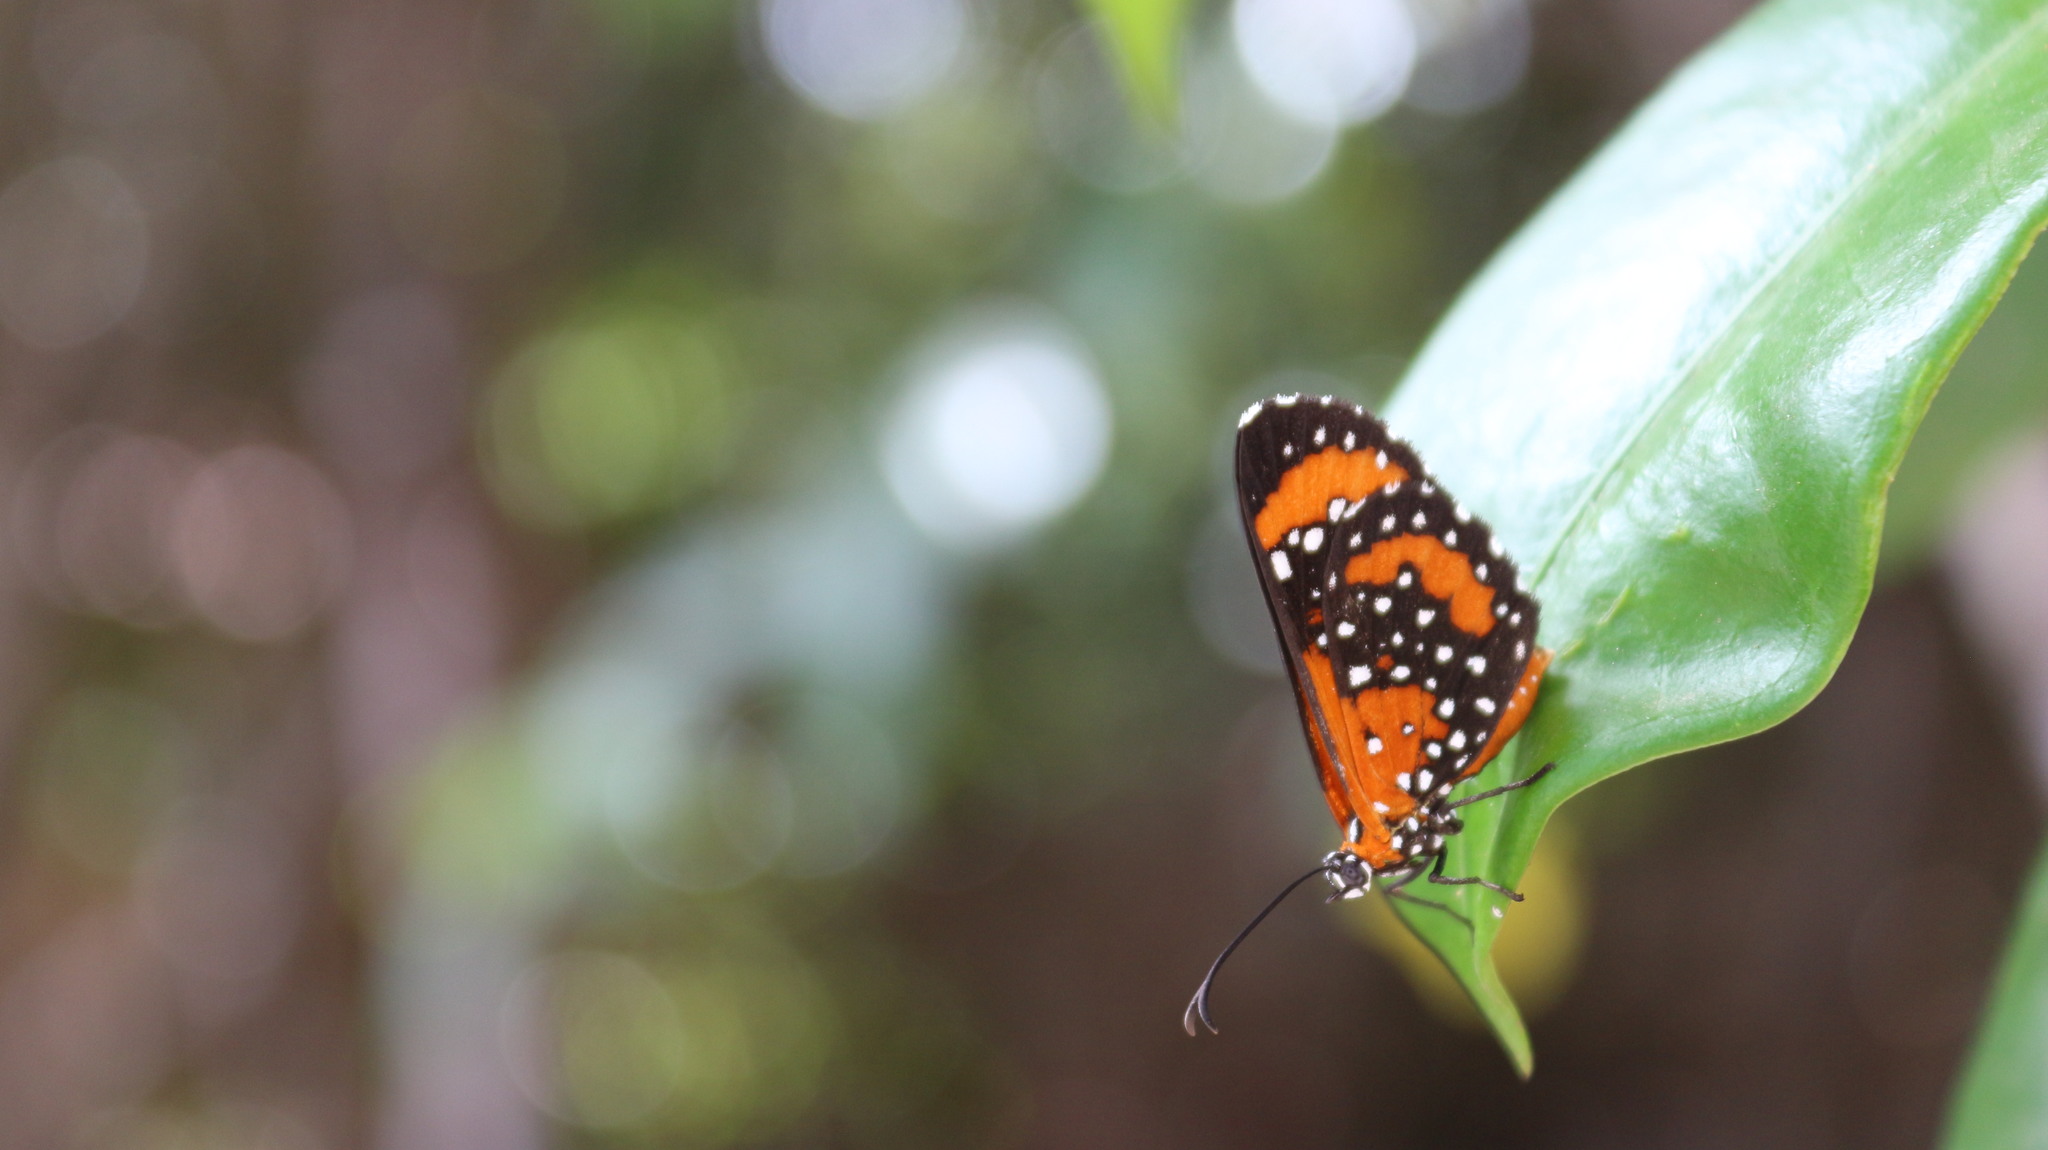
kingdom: Animalia
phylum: Arthropoda
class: Insecta
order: Lepidoptera
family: Riodinidae
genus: Stalachtis
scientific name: Stalachtis phlegia
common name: Dotted prince
